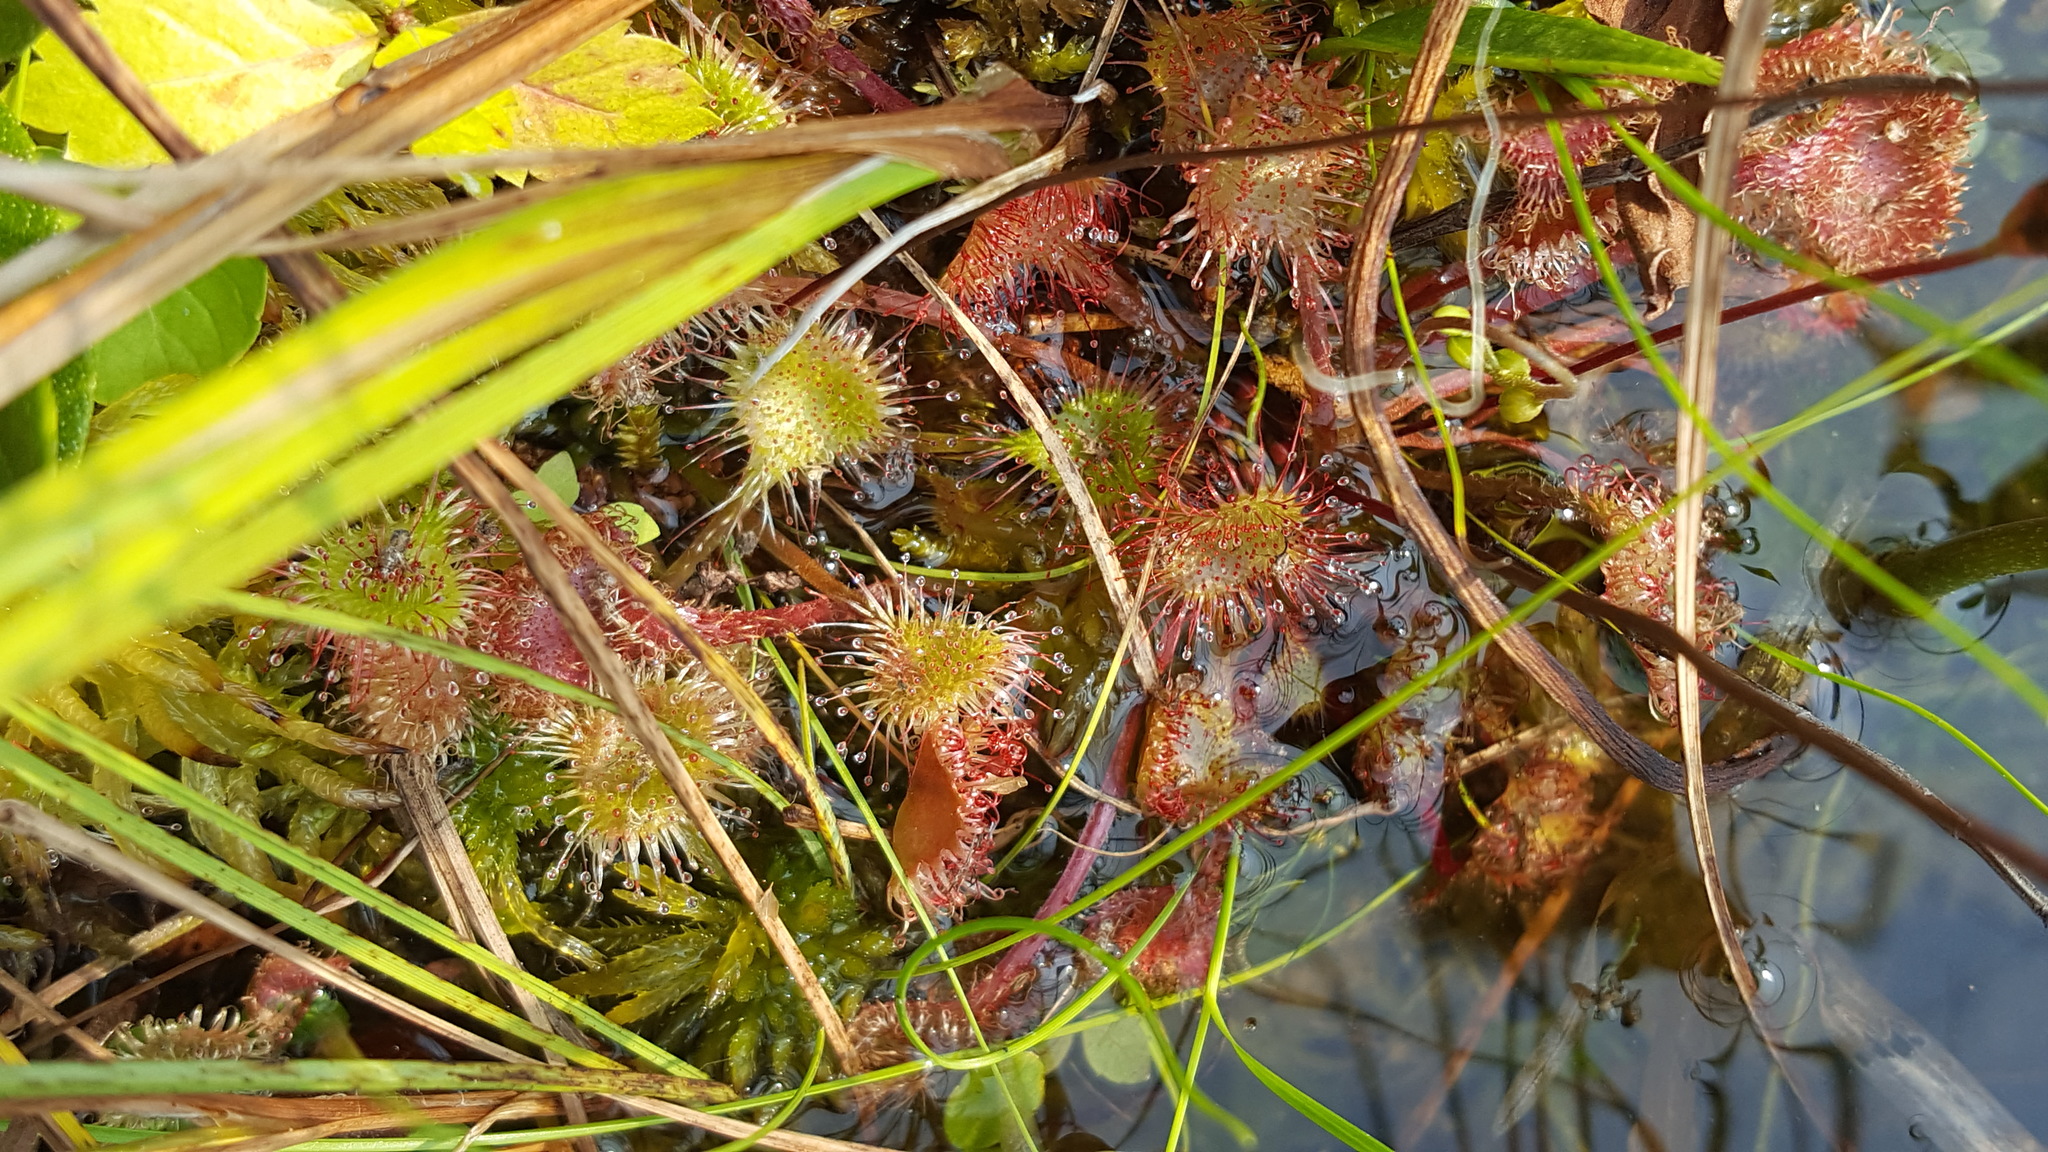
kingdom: Plantae
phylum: Tracheophyta
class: Magnoliopsida
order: Caryophyllales
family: Droseraceae
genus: Drosera
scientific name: Drosera rotundifolia
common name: Round-leaved sundew
